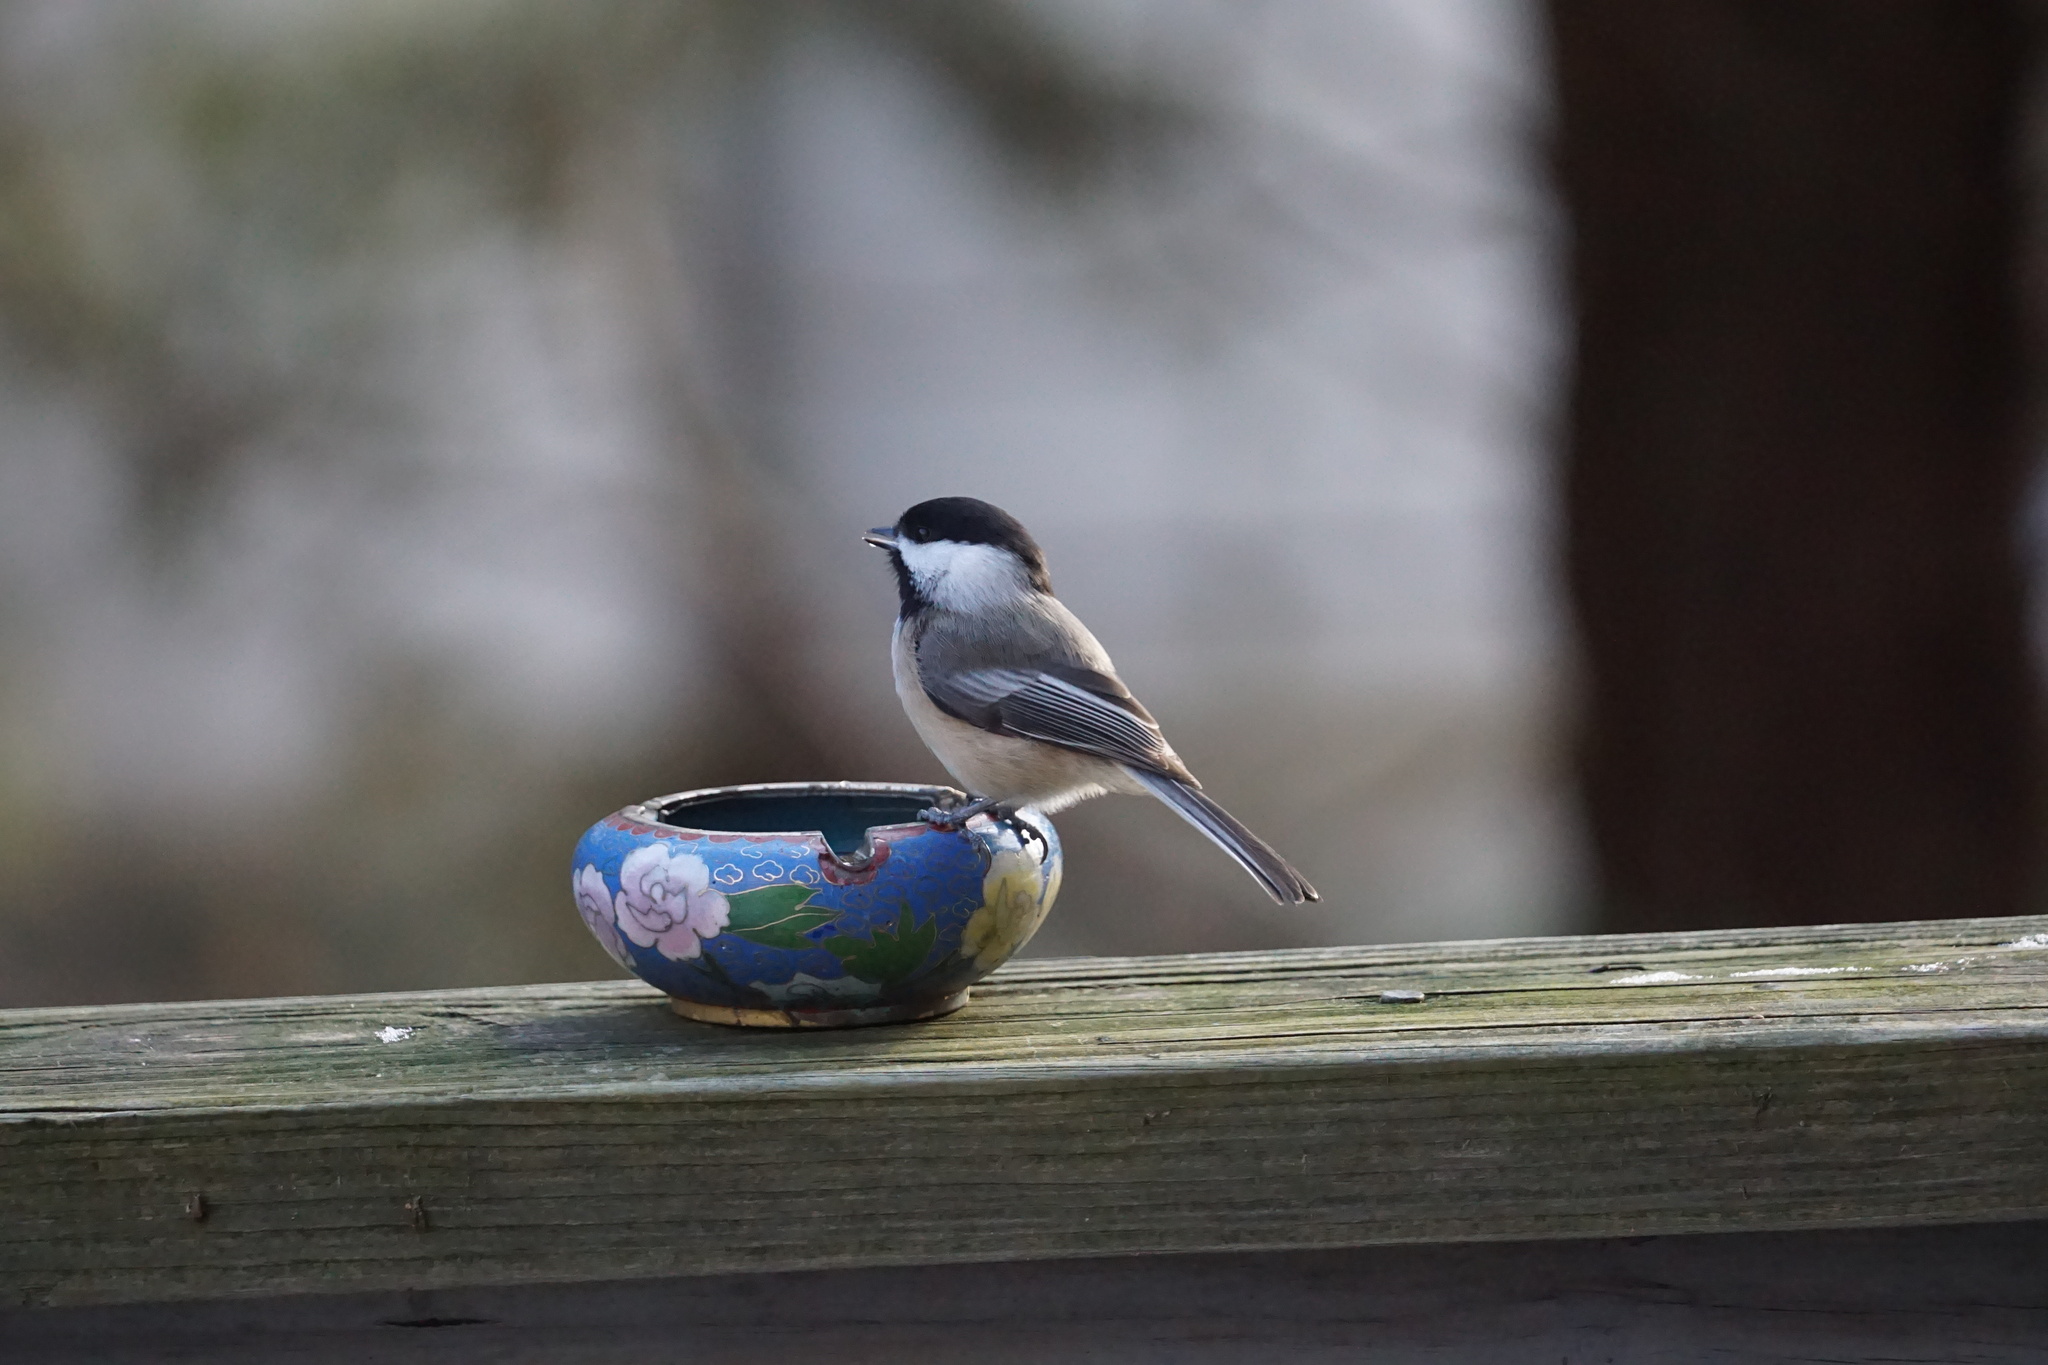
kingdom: Animalia
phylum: Chordata
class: Aves
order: Passeriformes
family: Paridae
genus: Poecile
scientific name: Poecile atricapillus
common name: Black-capped chickadee
